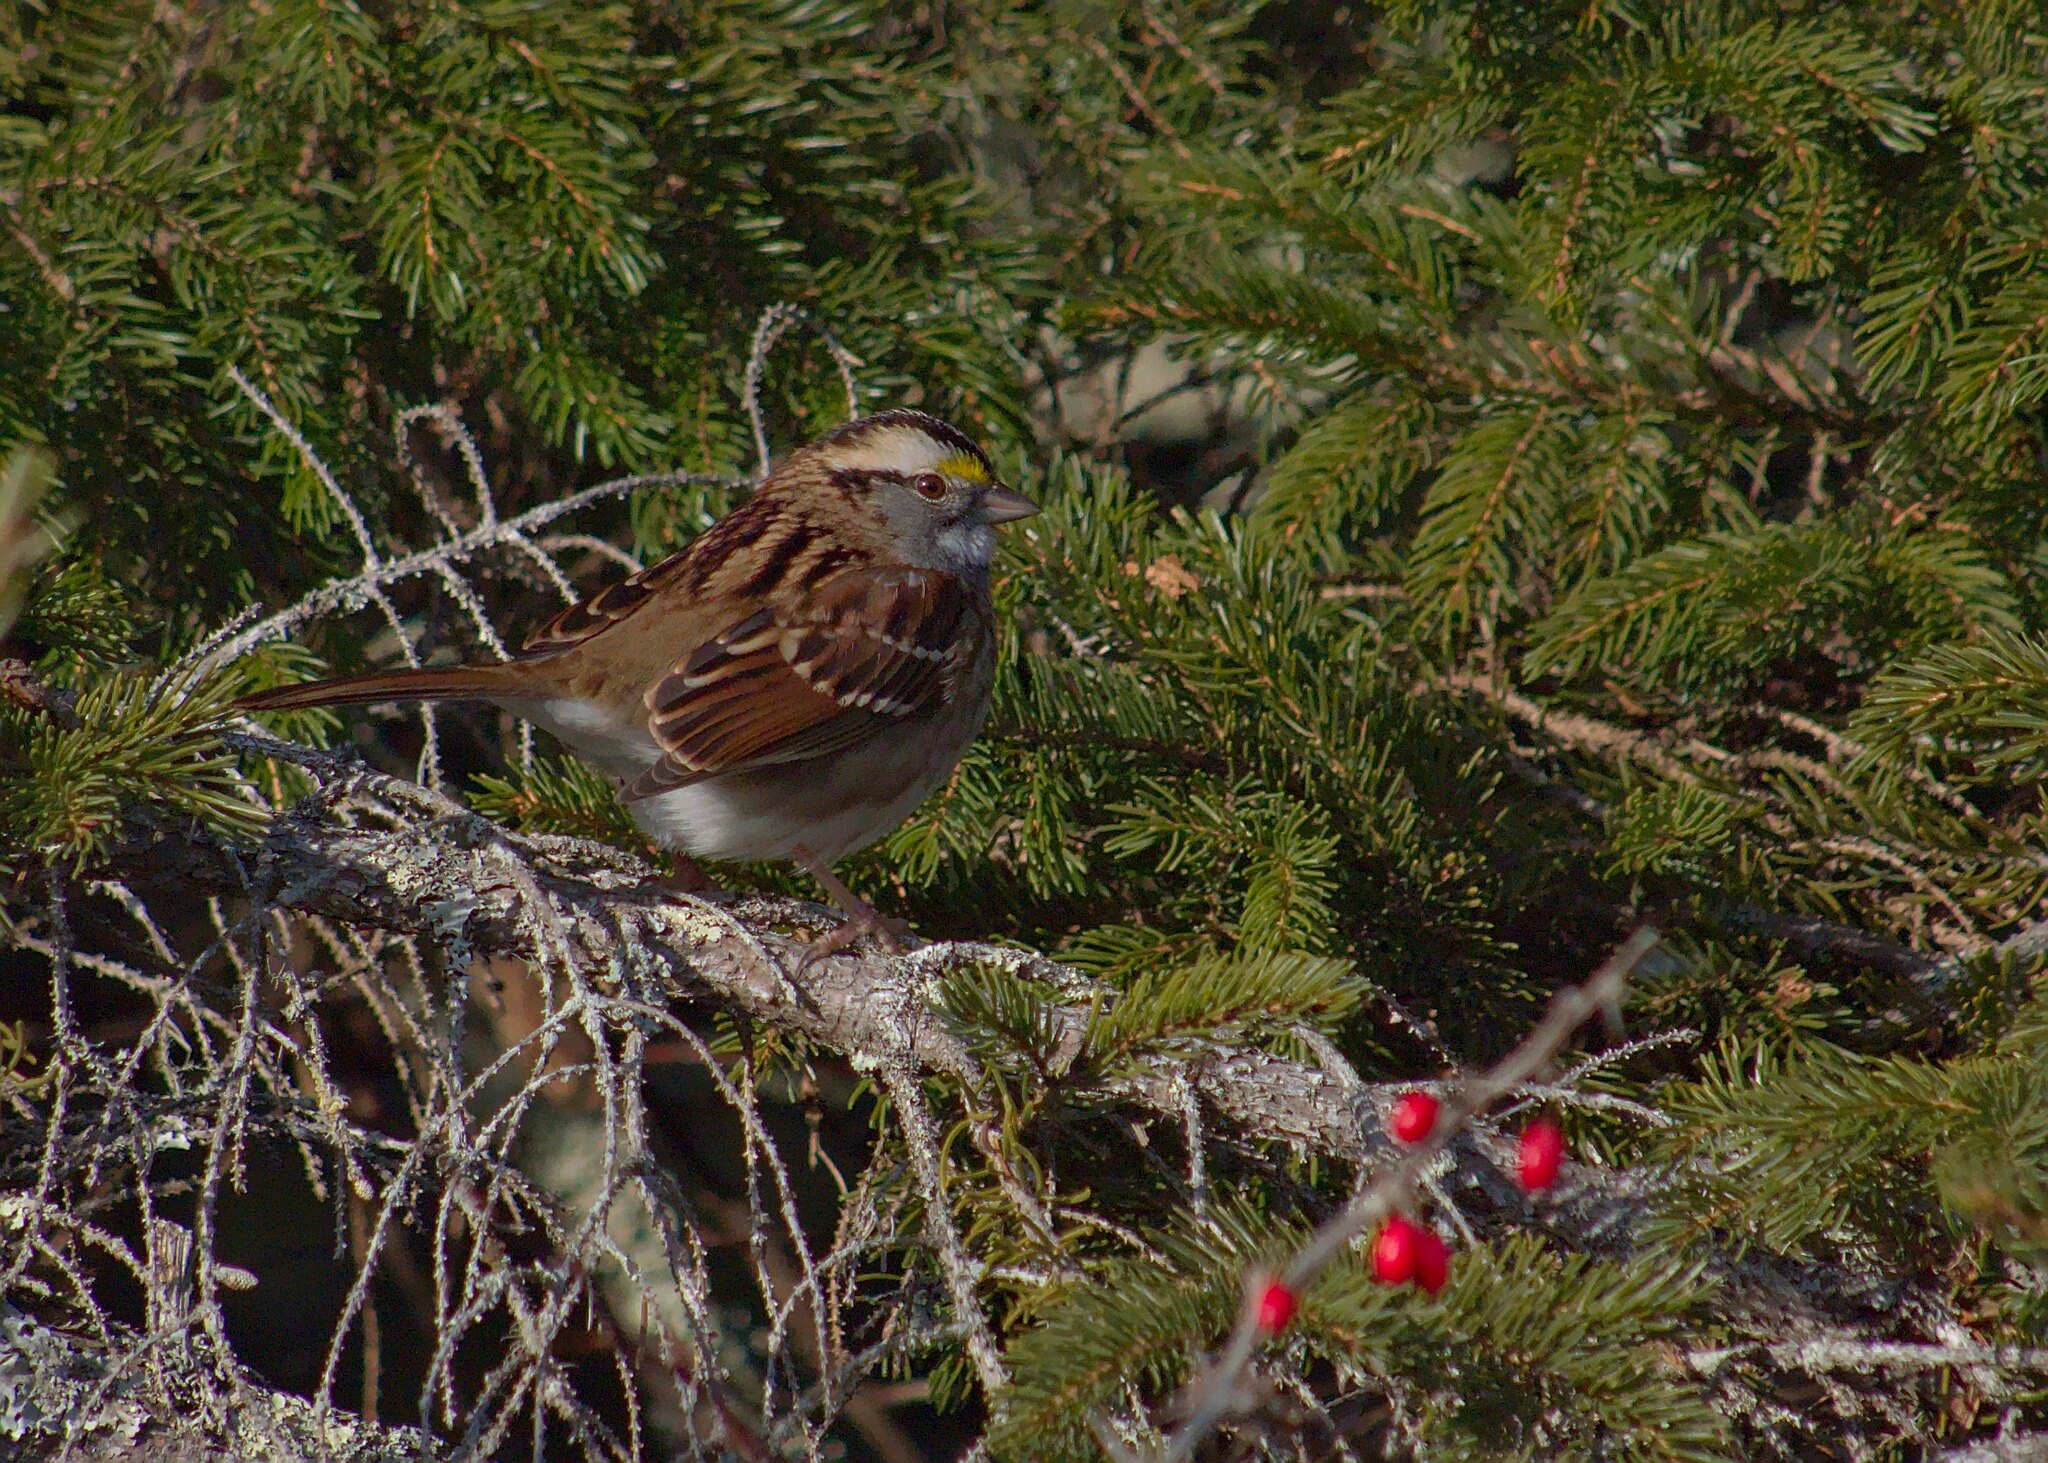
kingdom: Animalia
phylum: Chordata
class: Aves
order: Passeriformes
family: Passerellidae
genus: Zonotrichia
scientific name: Zonotrichia albicollis
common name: White-throated sparrow
